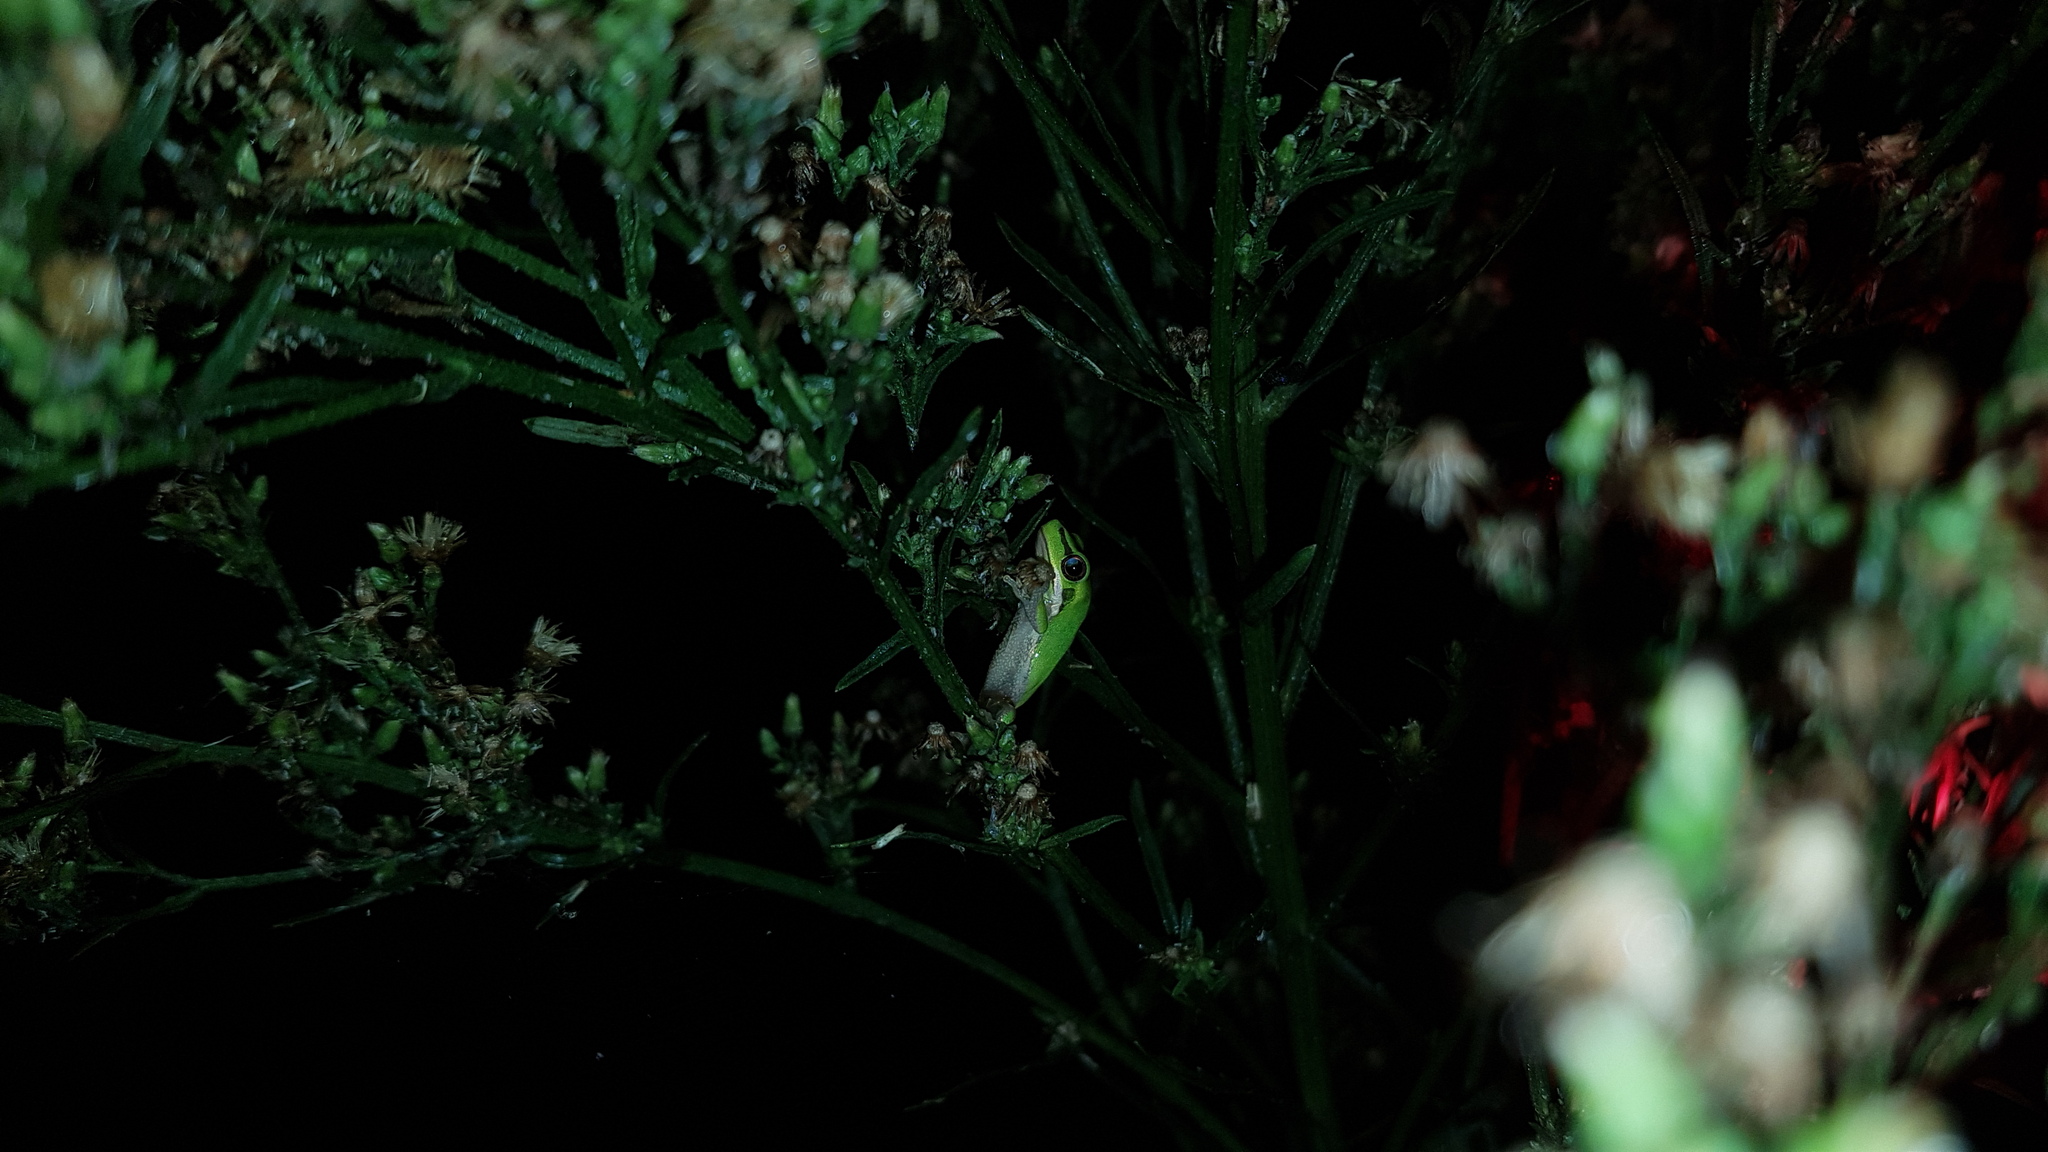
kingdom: Animalia
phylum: Chordata
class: Amphibia
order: Anura
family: Pelodryadidae
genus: Litoria
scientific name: Litoria fallax
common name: Eastern dwarf treefrog
